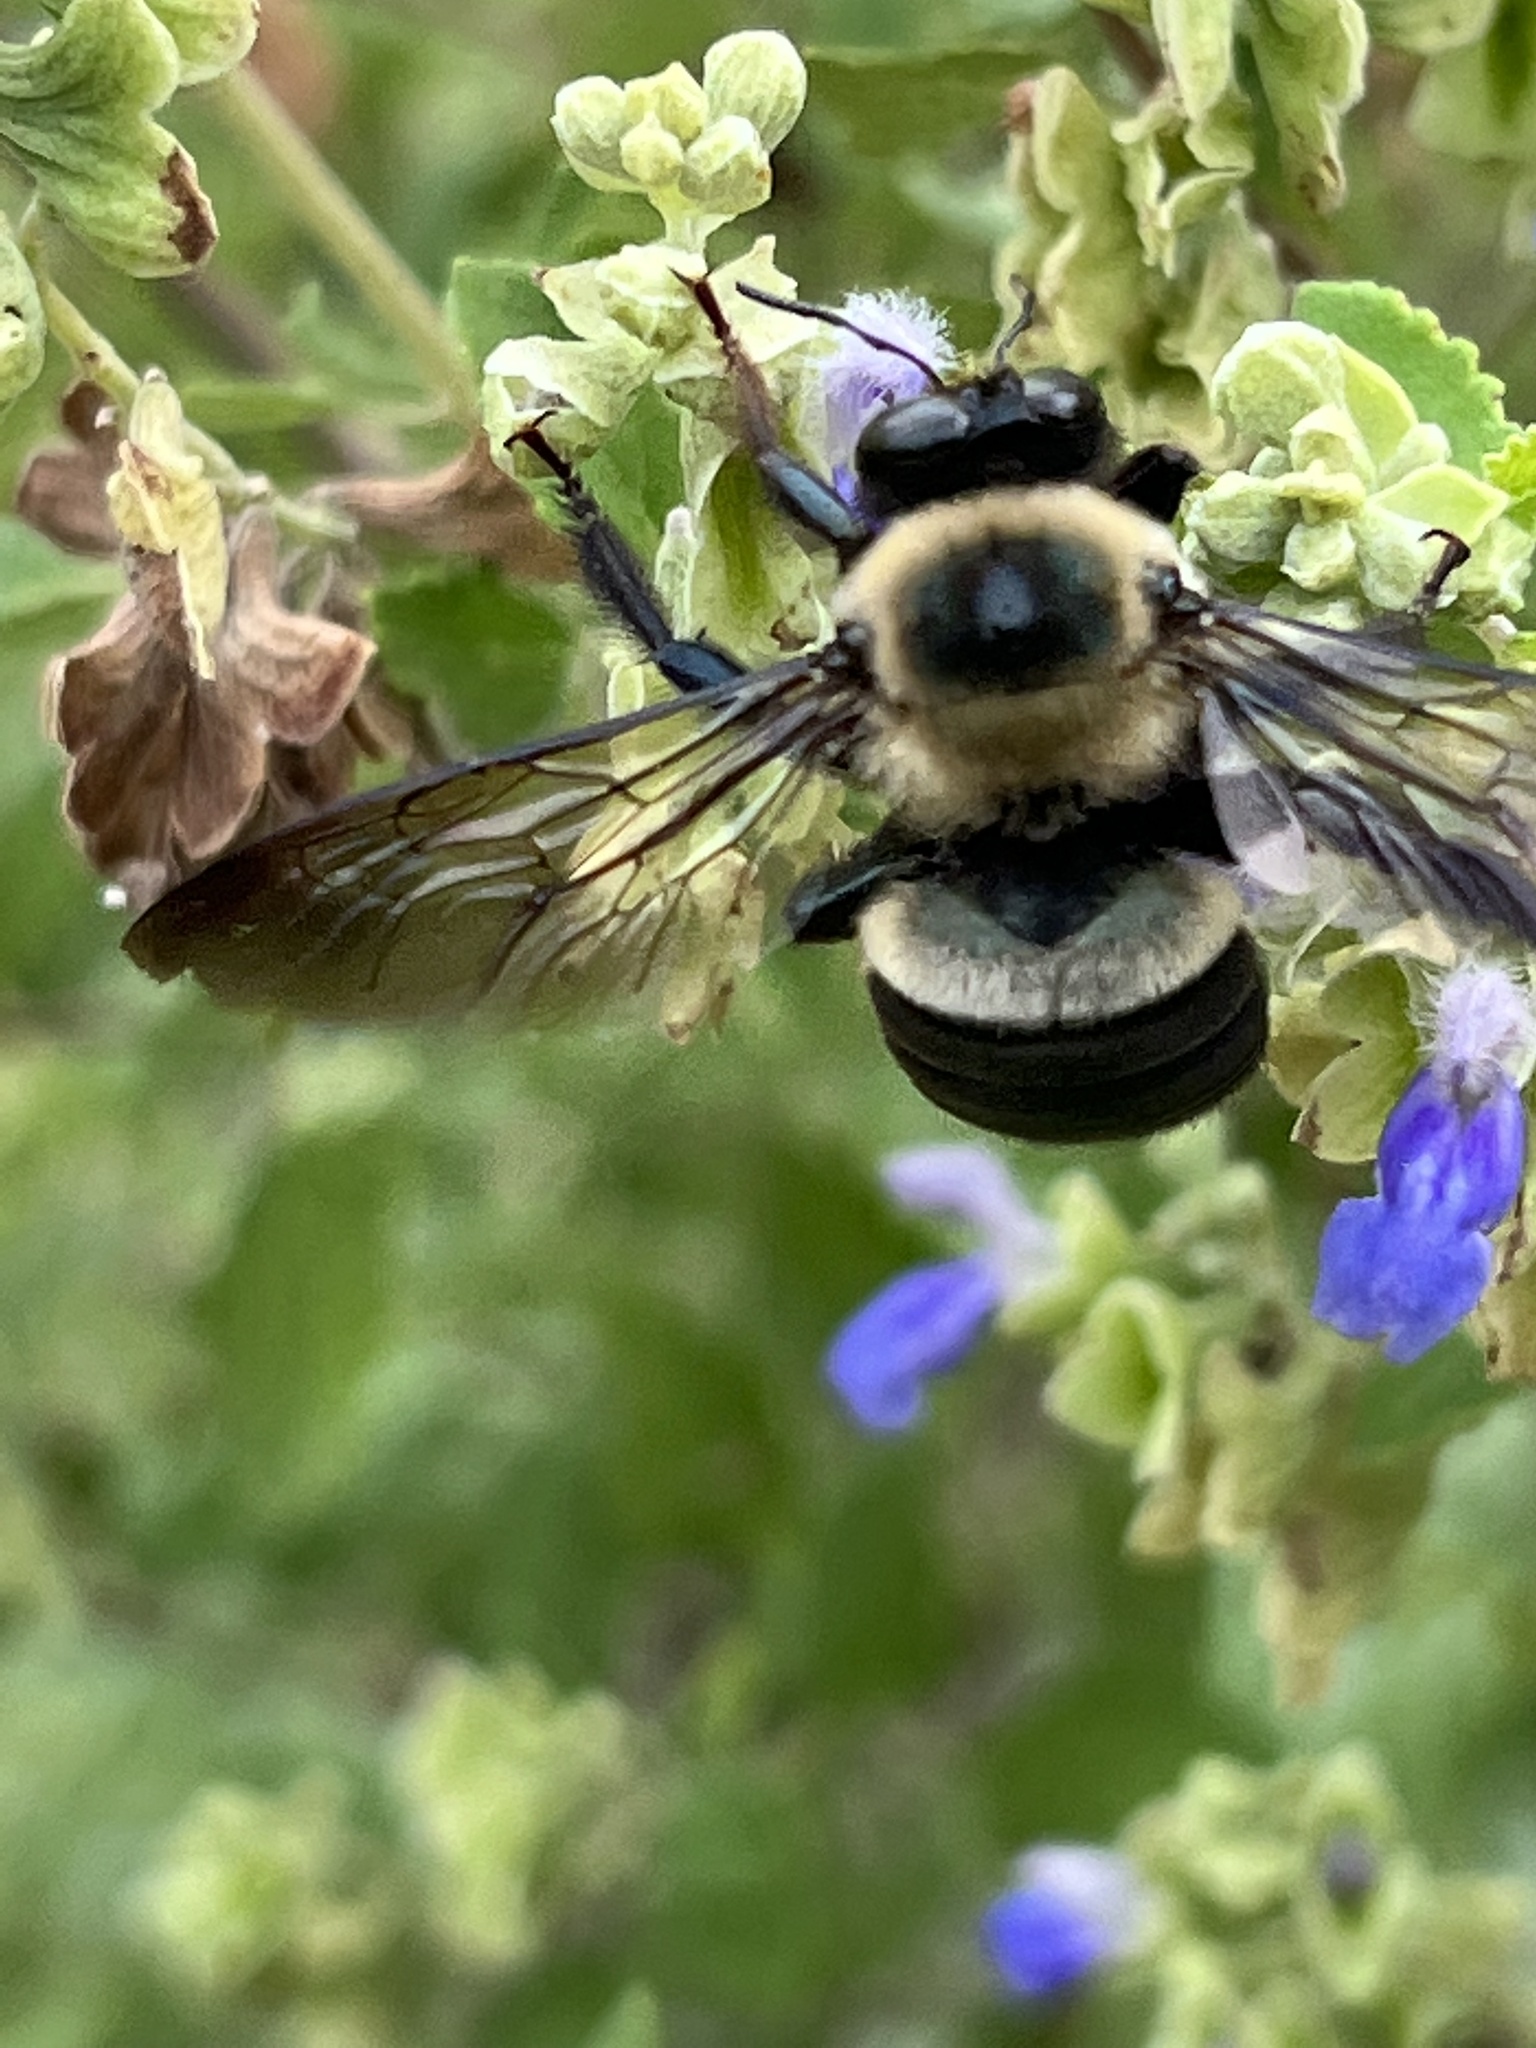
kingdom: Animalia
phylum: Arthropoda
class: Insecta
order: Hymenoptera
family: Apidae
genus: Xylocopa
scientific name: Xylocopa virginica
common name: Carpenter bee
